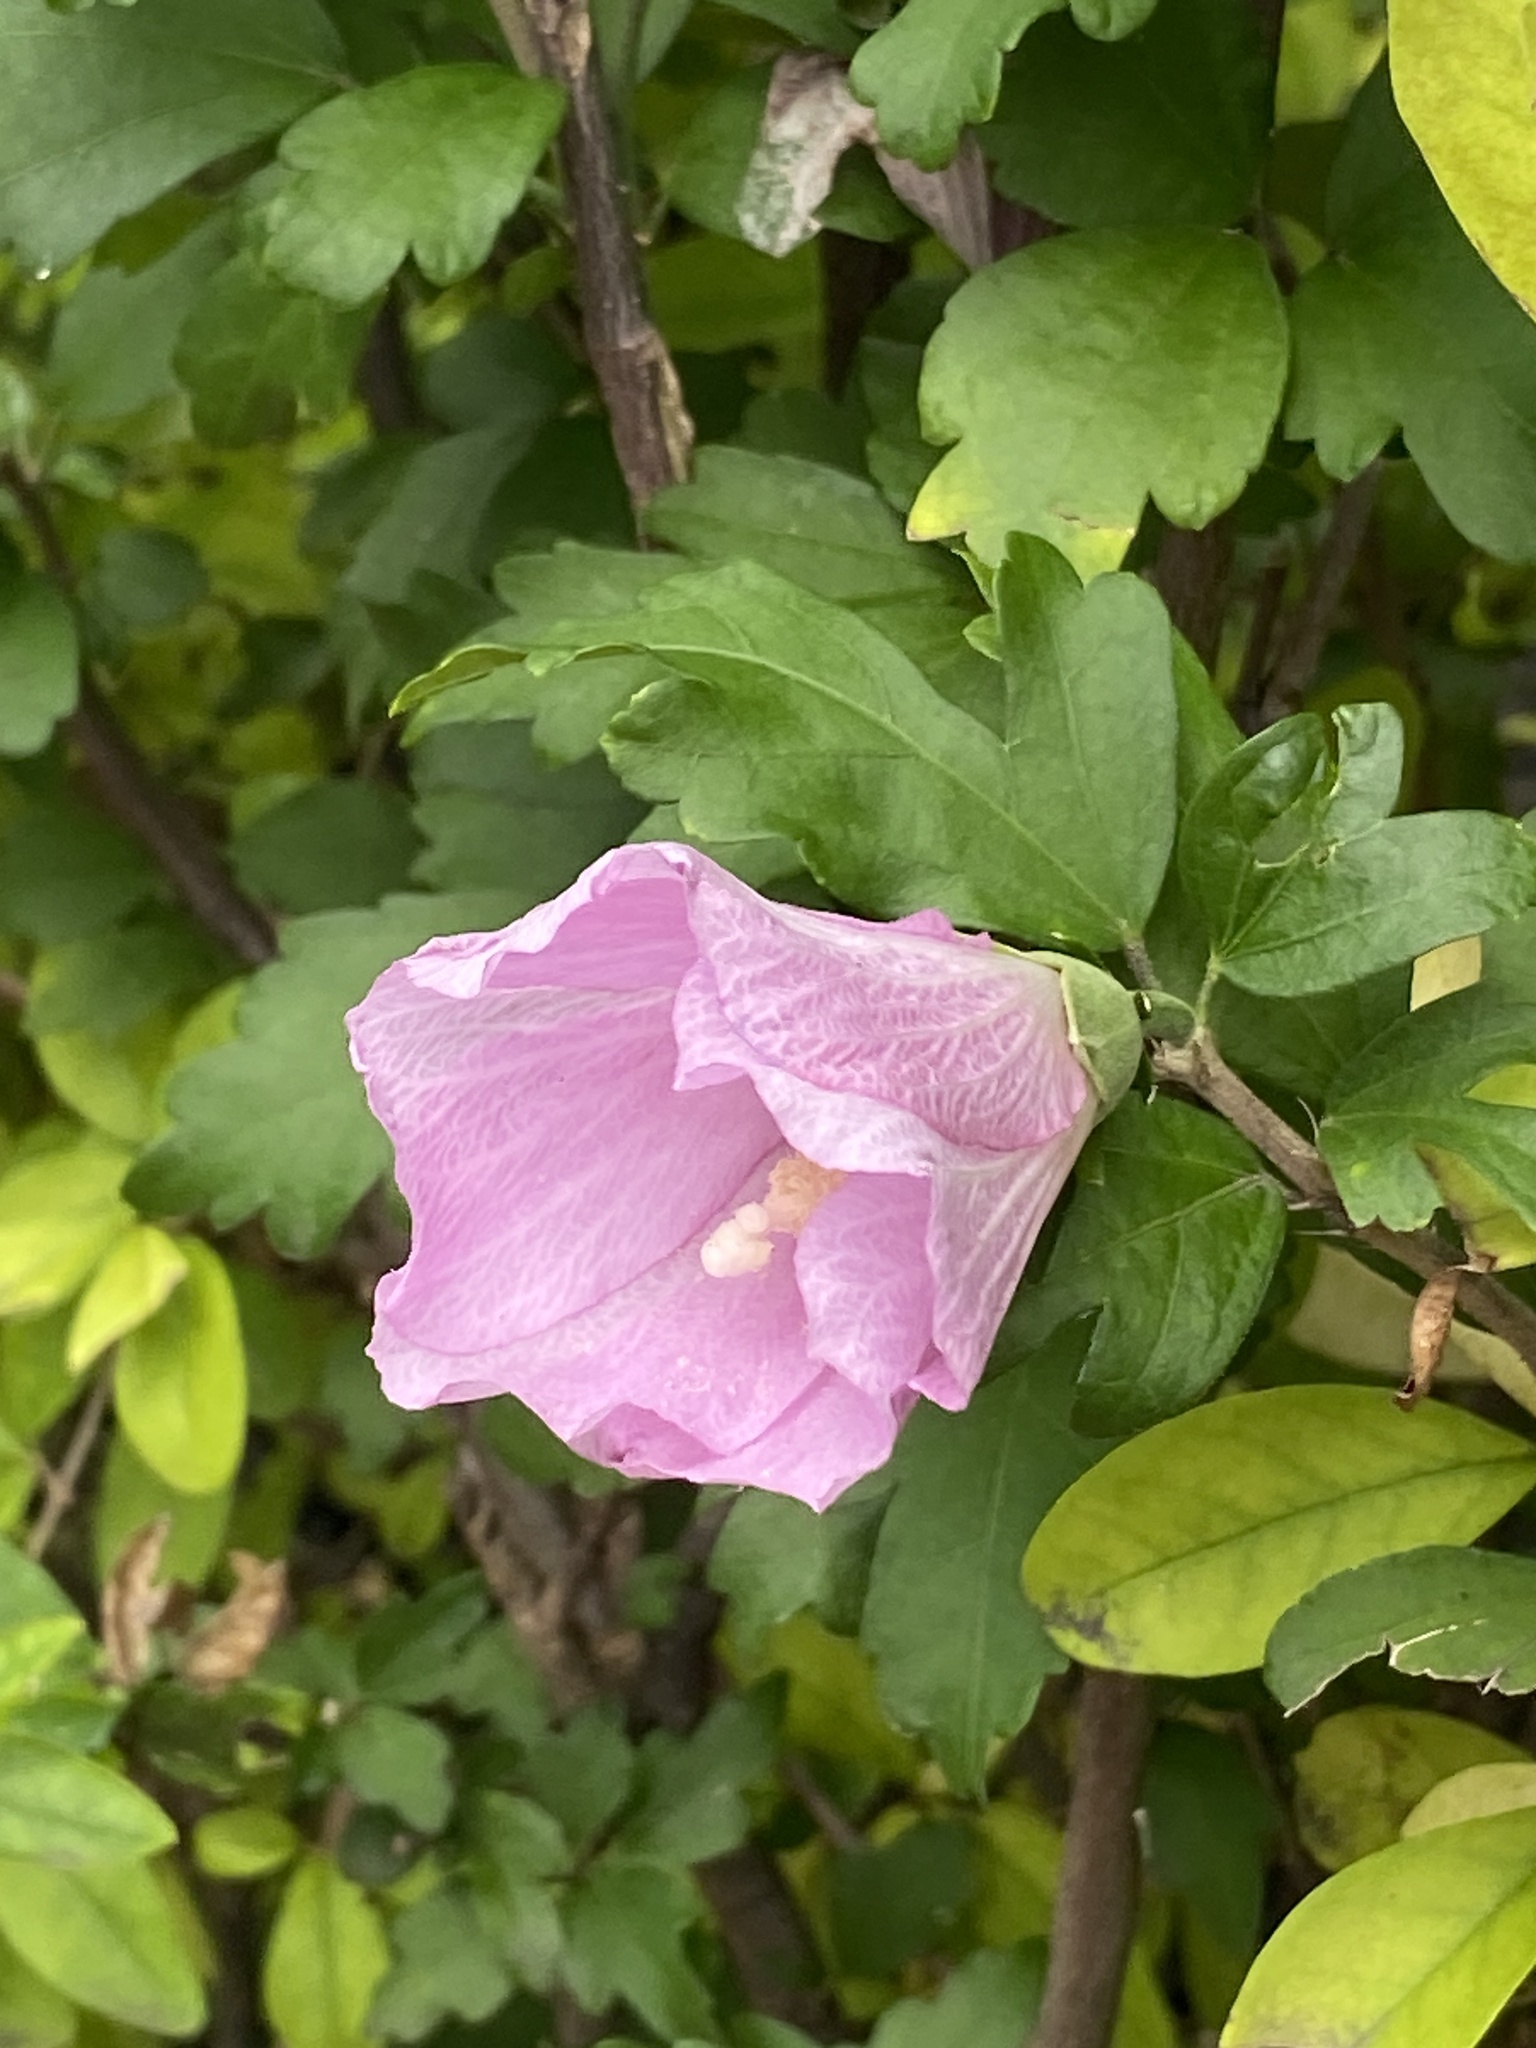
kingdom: Plantae
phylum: Tracheophyta
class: Magnoliopsida
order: Malvales
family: Malvaceae
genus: Hibiscus
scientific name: Hibiscus syriacus
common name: Syrian ketmia
